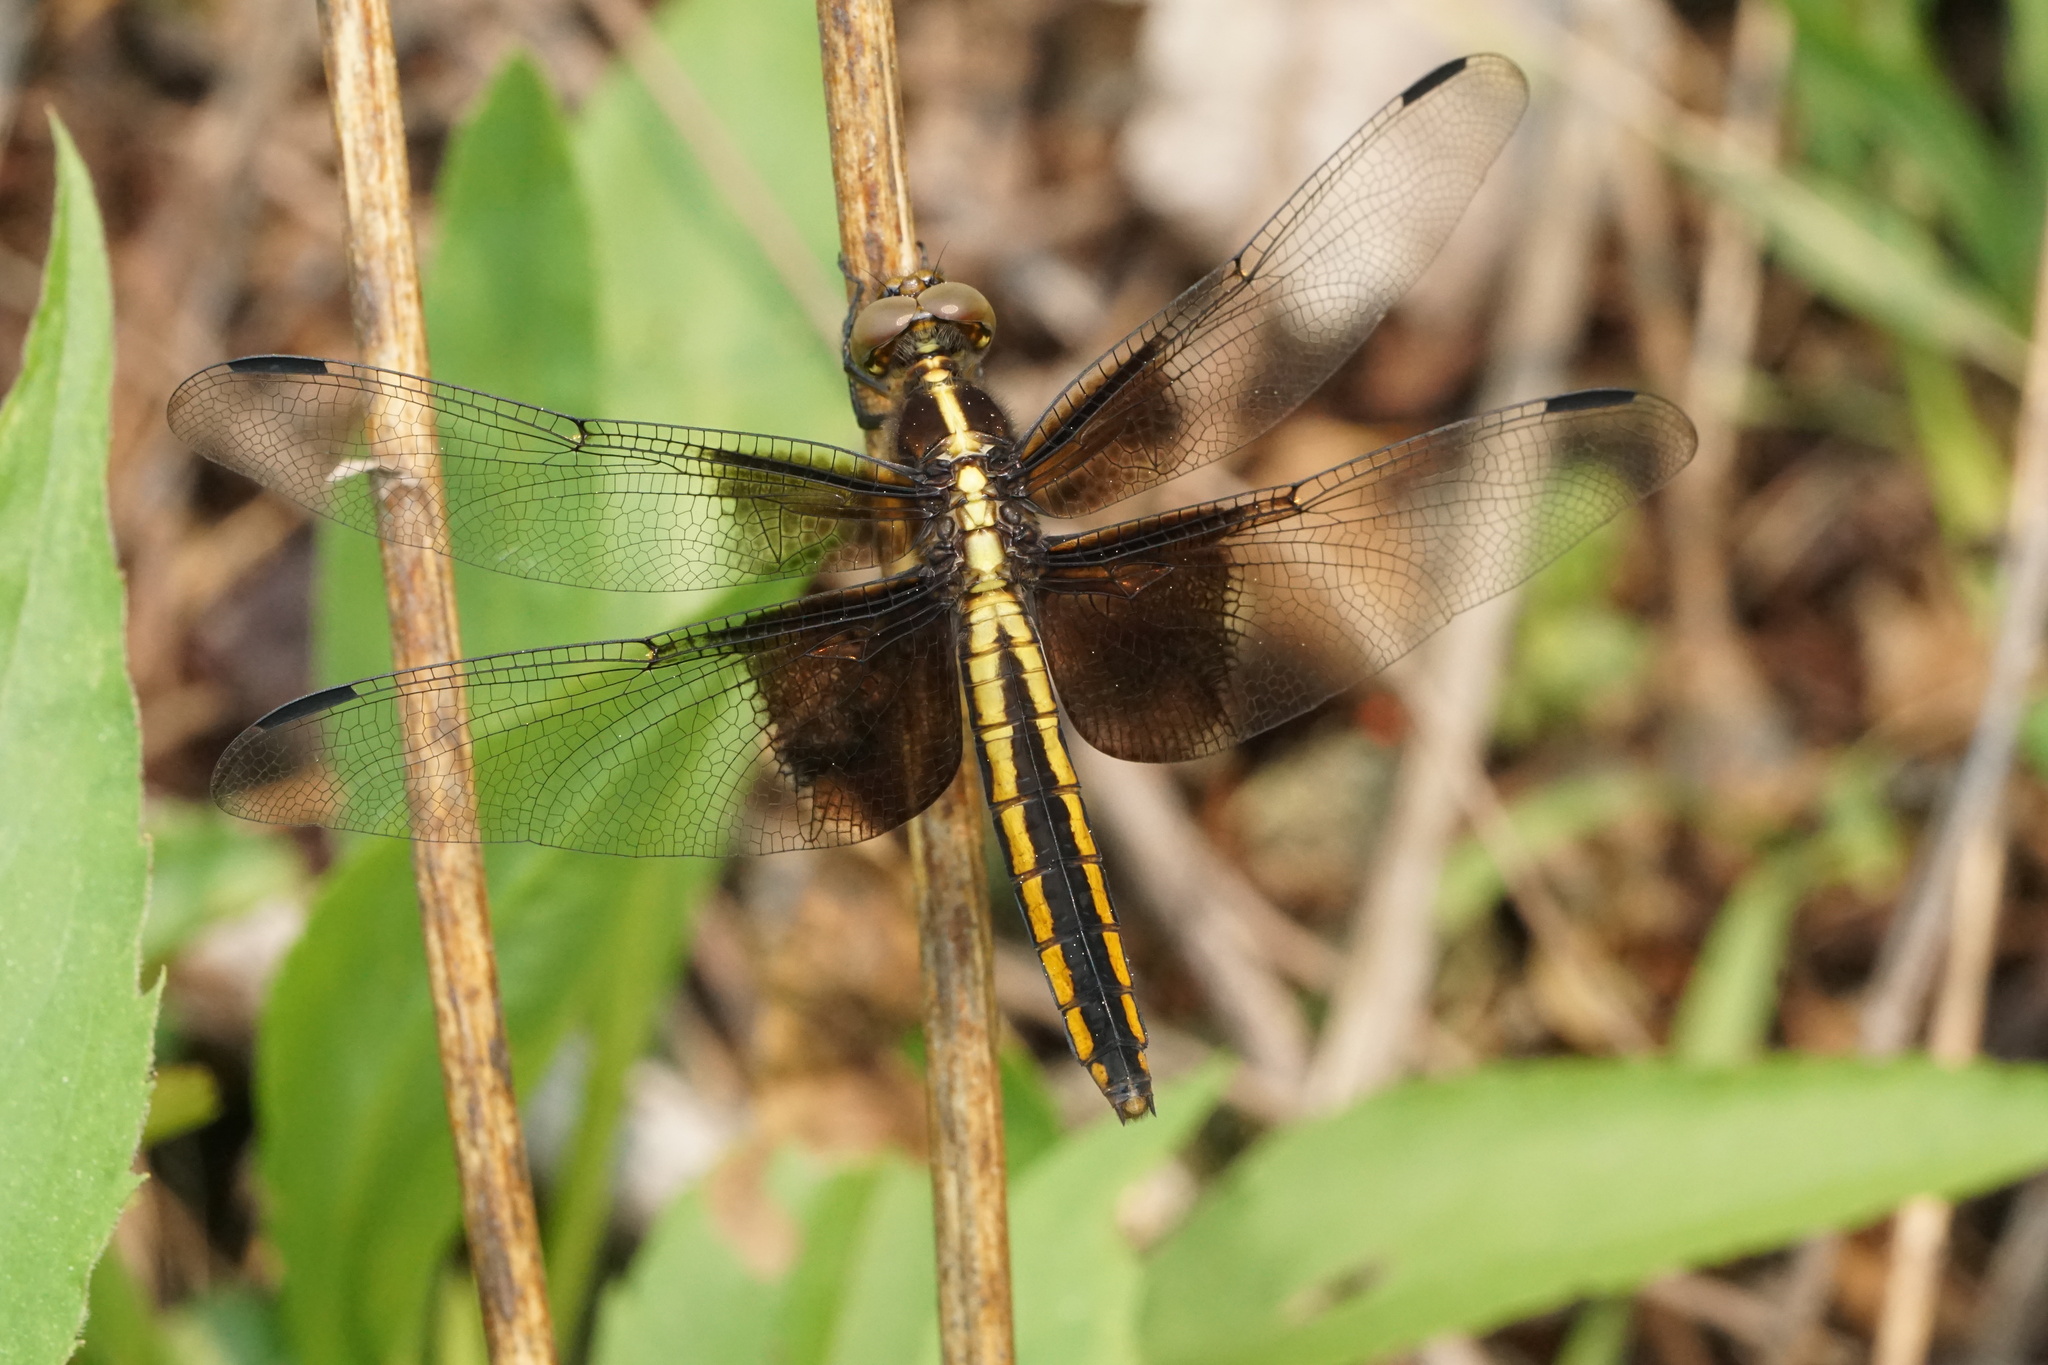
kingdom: Animalia
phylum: Arthropoda
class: Insecta
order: Odonata
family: Libellulidae
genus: Libellula
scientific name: Libellula luctuosa
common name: Widow skimmer
